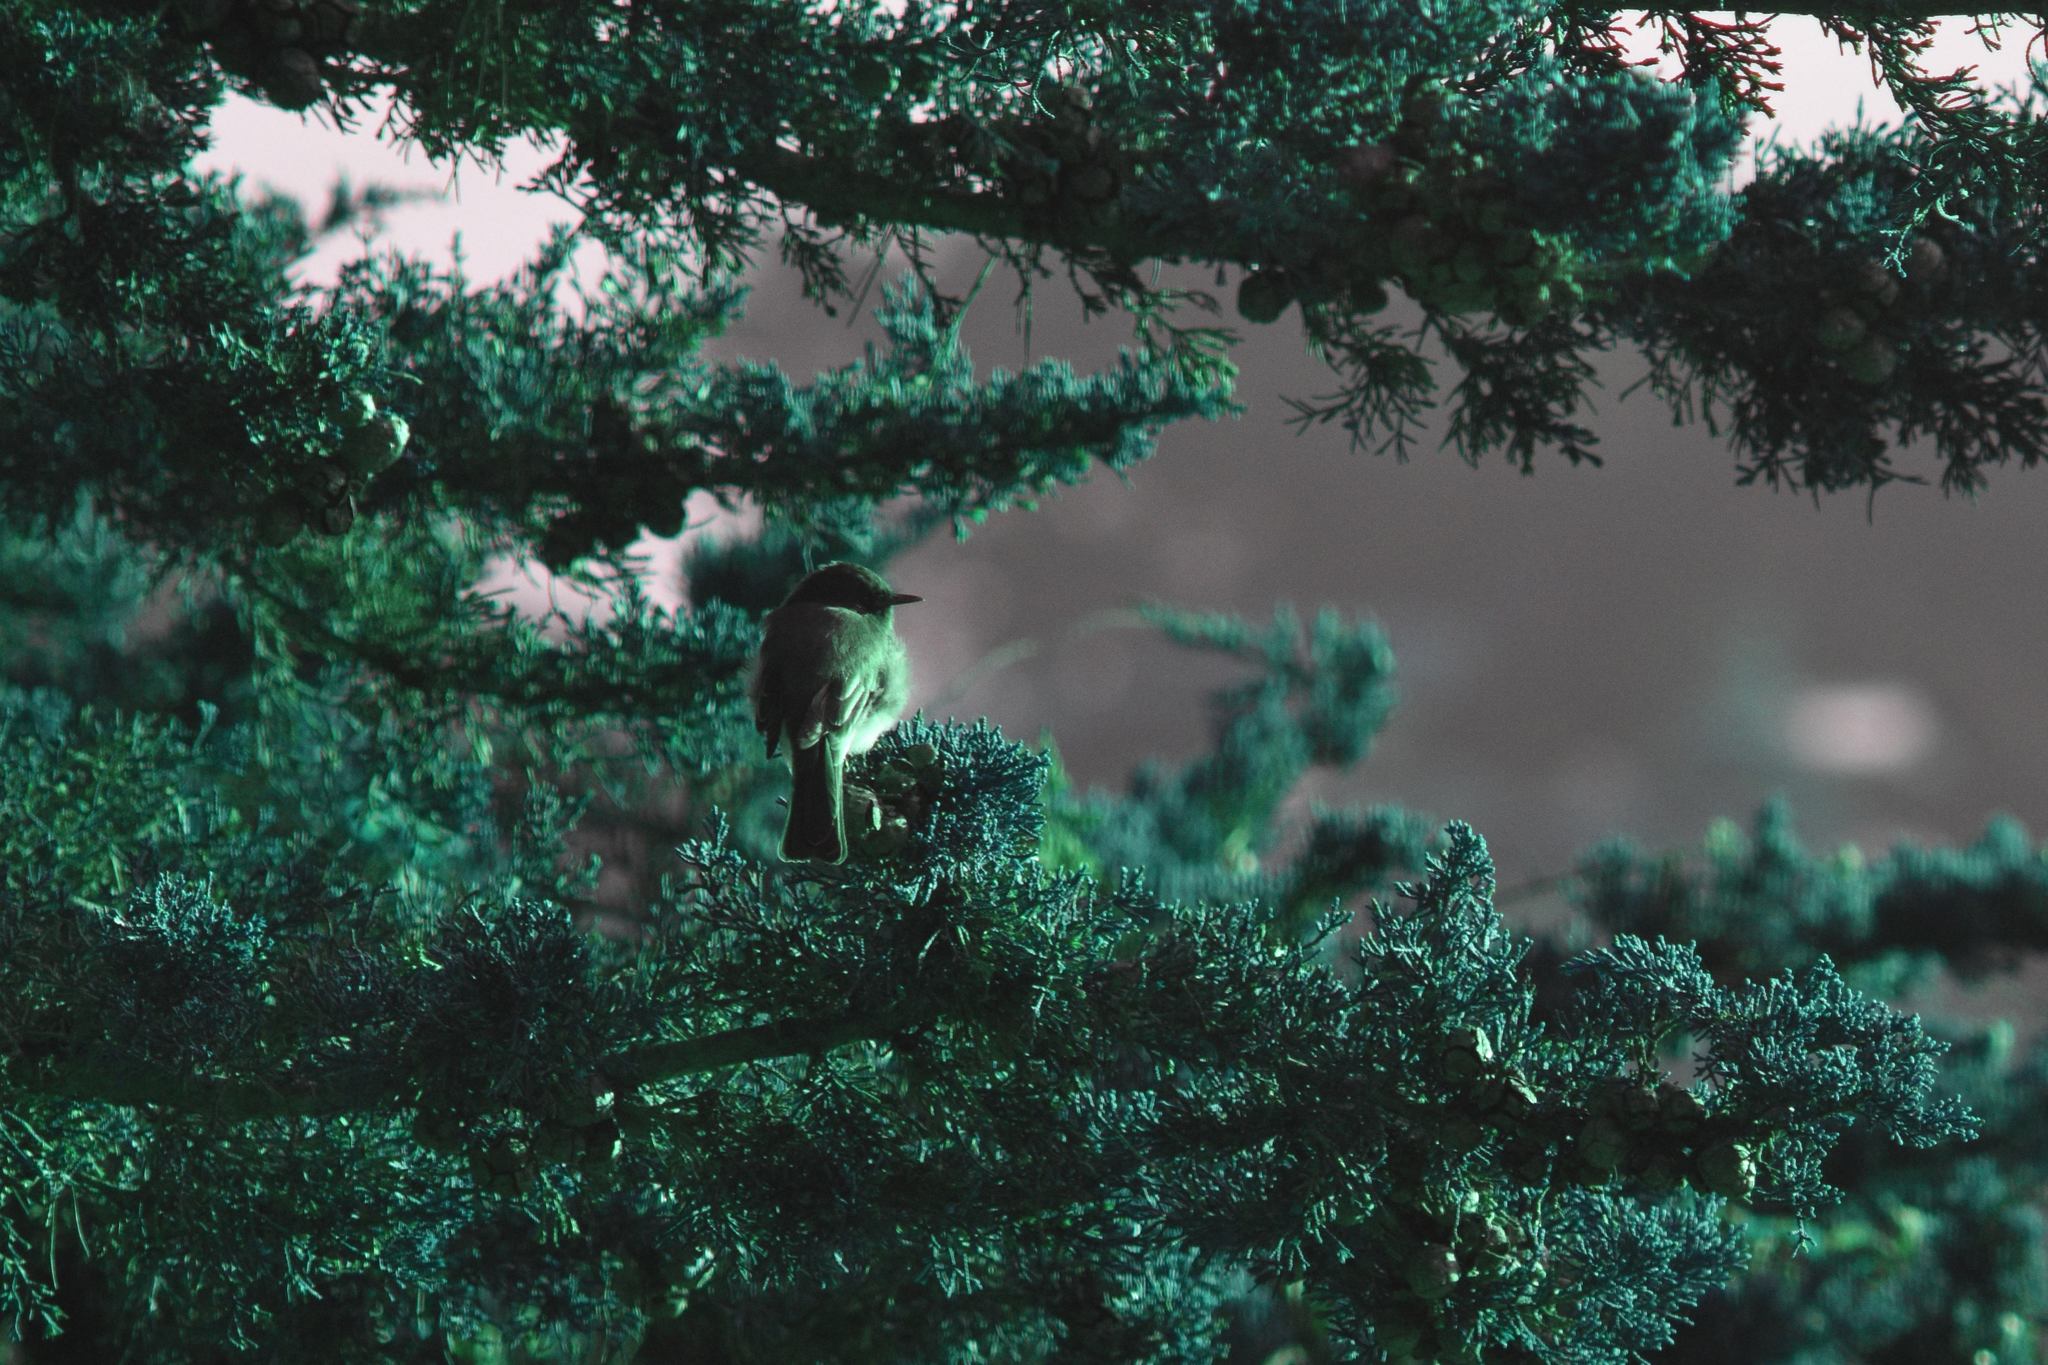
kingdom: Animalia
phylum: Chordata
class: Aves
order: Passeriformes
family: Tyrannidae
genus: Sayornis
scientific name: Sayornis nigricans
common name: Black phoebe
